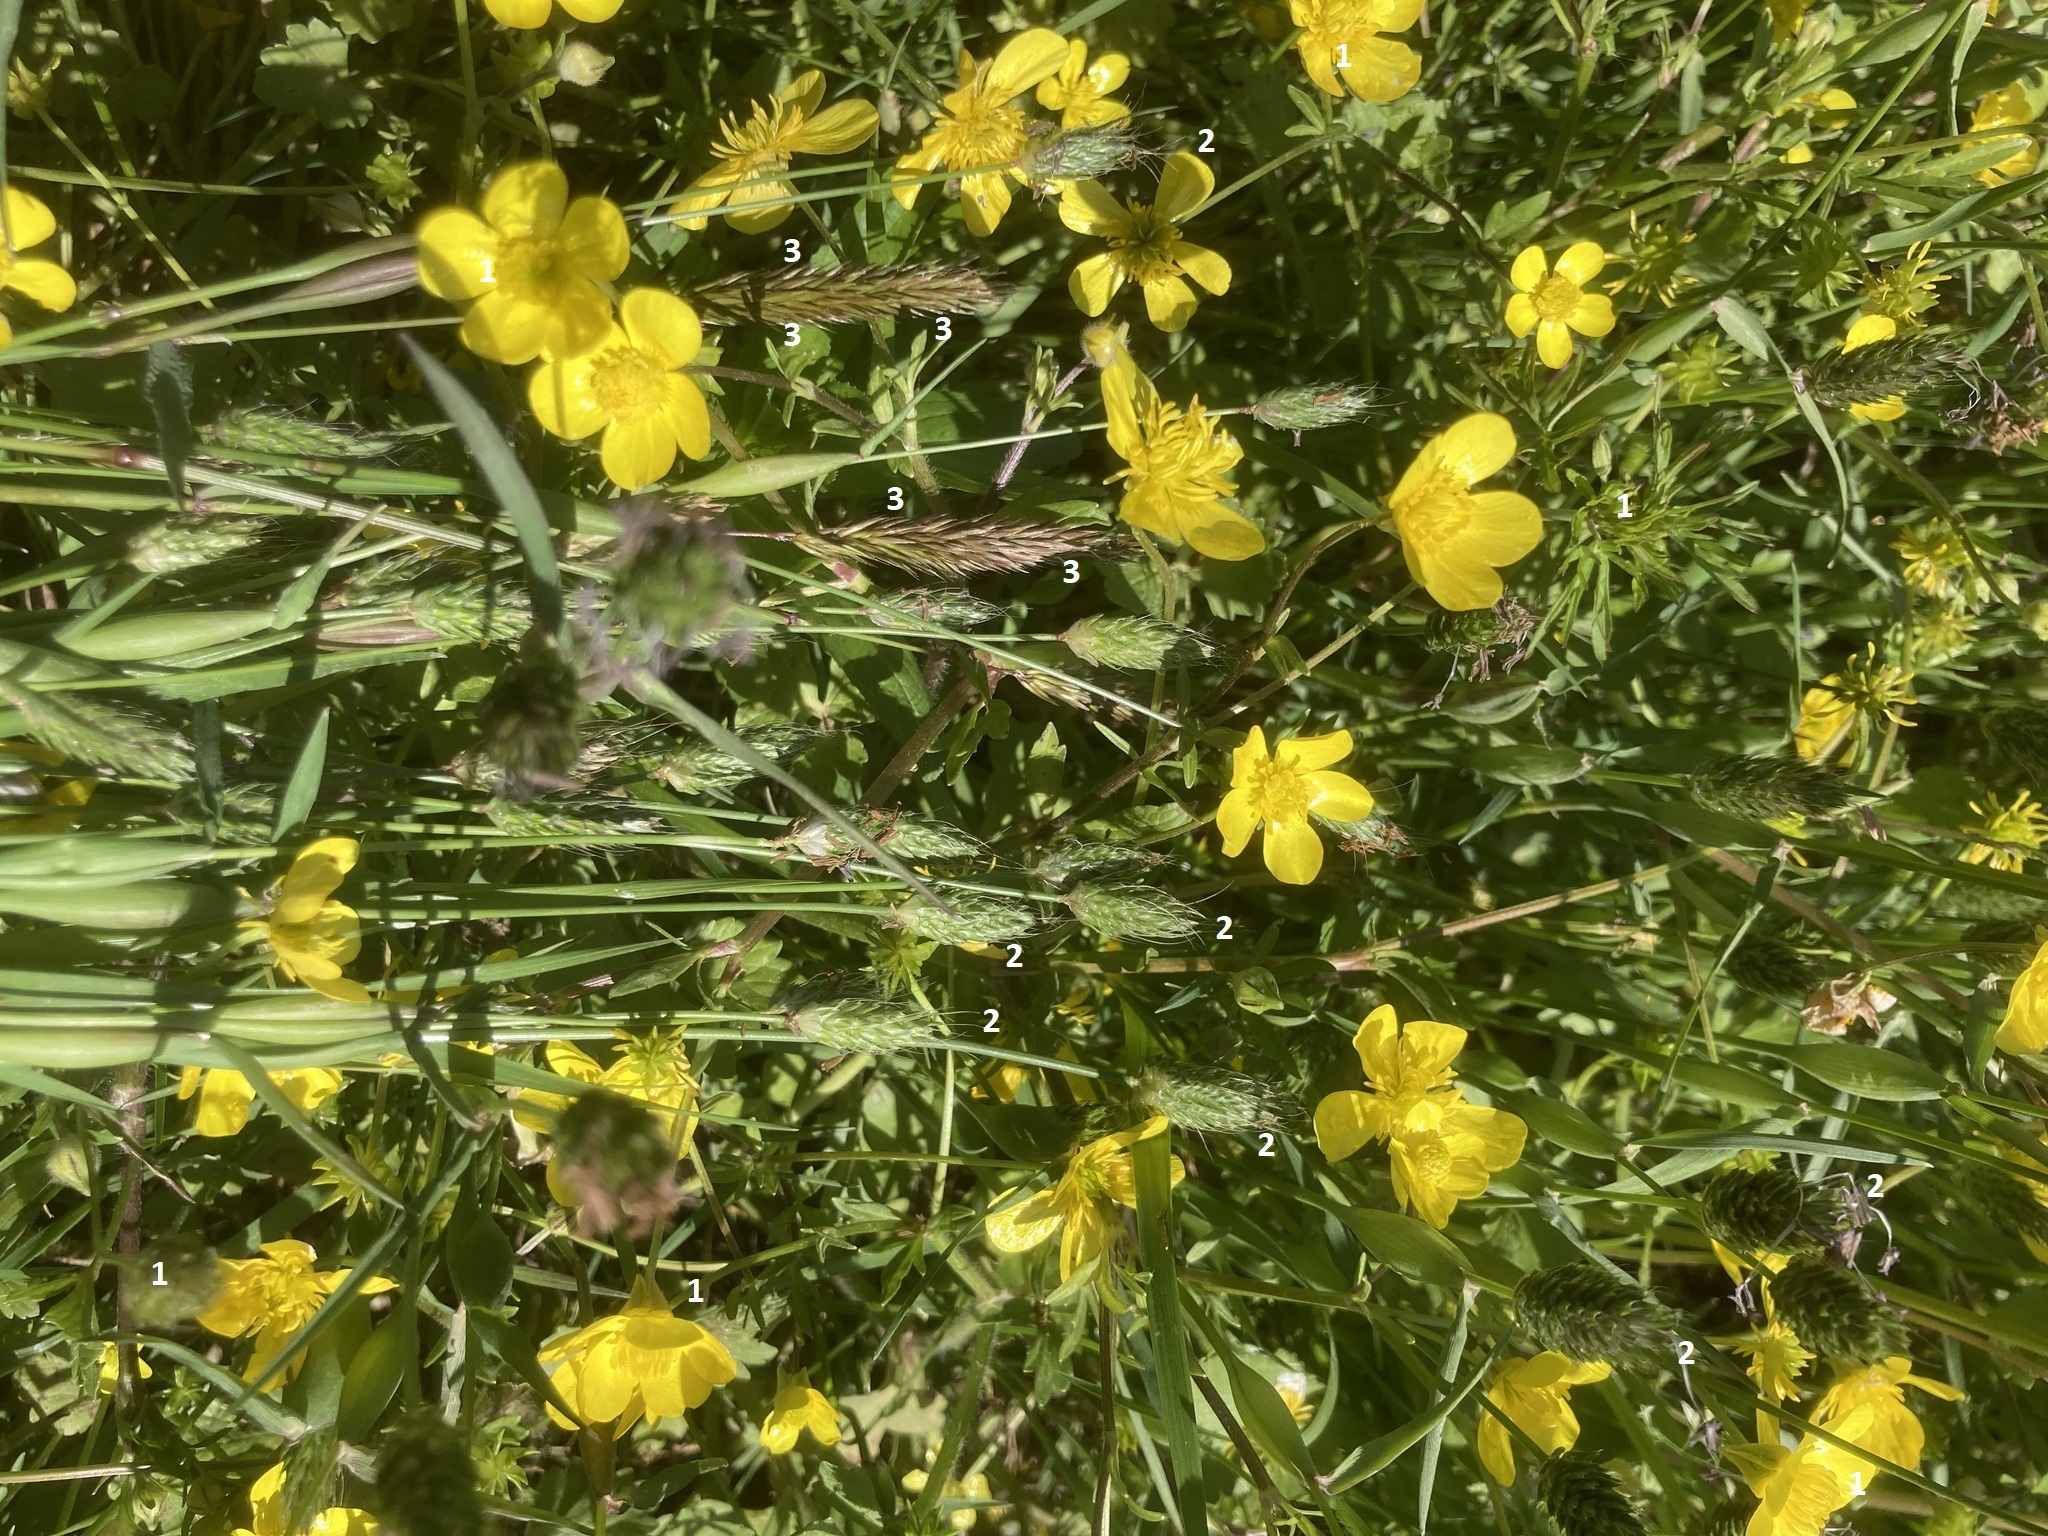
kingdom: Plantae
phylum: Tracheophyta
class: Liliopsida
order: Poales
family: Poaceae
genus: Anthoxanthum
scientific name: Anthoxanthum odoratum
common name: Sweet vernalgrass
